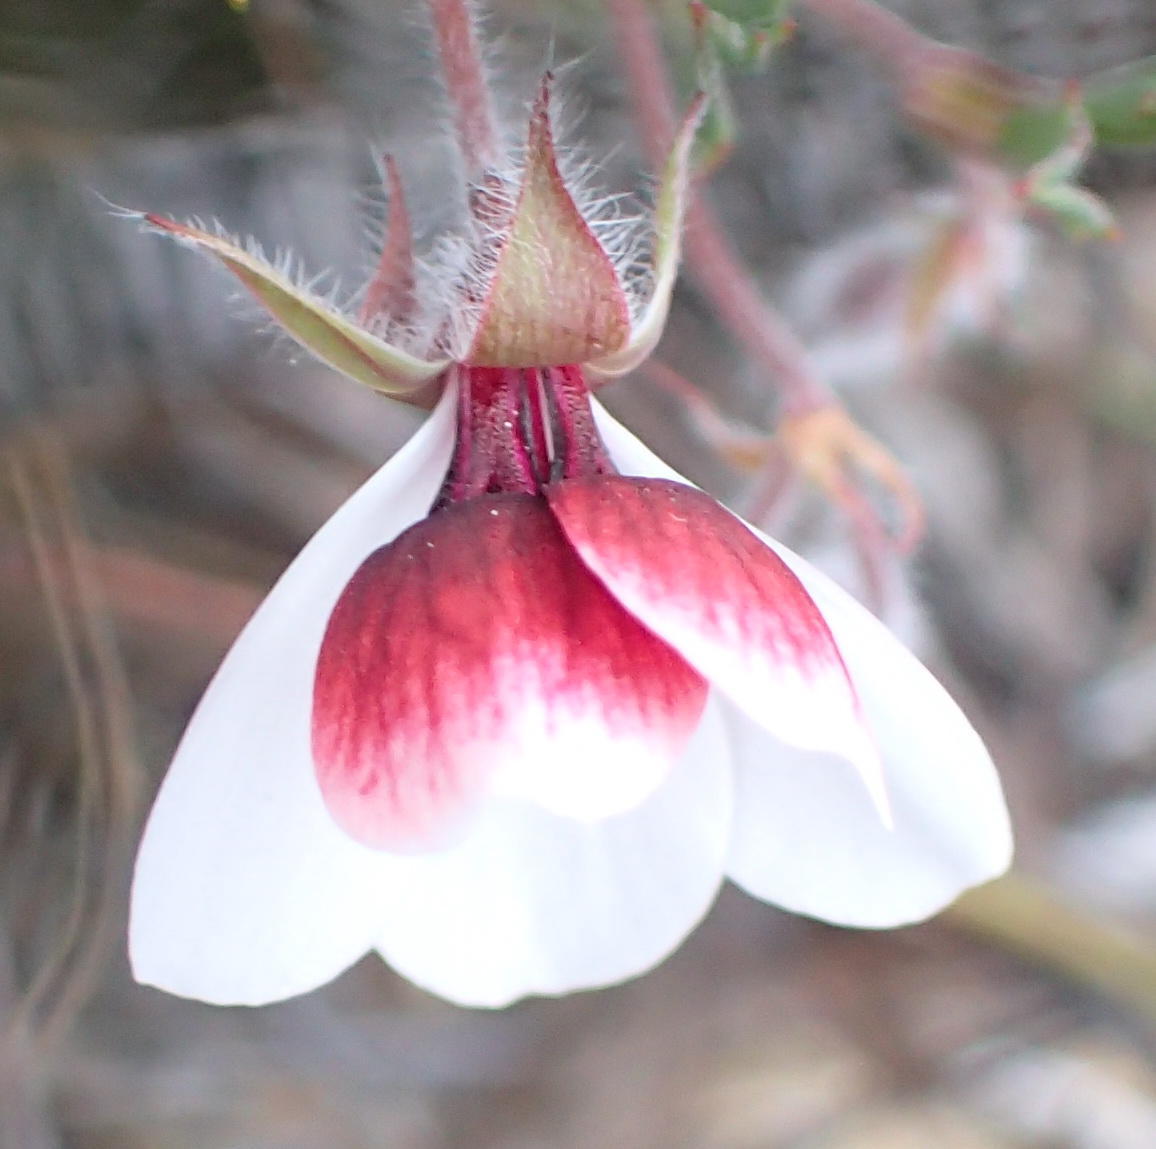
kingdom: Plantae
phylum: Tracheophyta
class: Magnoliopsida
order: Geraniales
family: Geraniaceae
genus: Pelargonium
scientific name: Pelargonium tricolor
